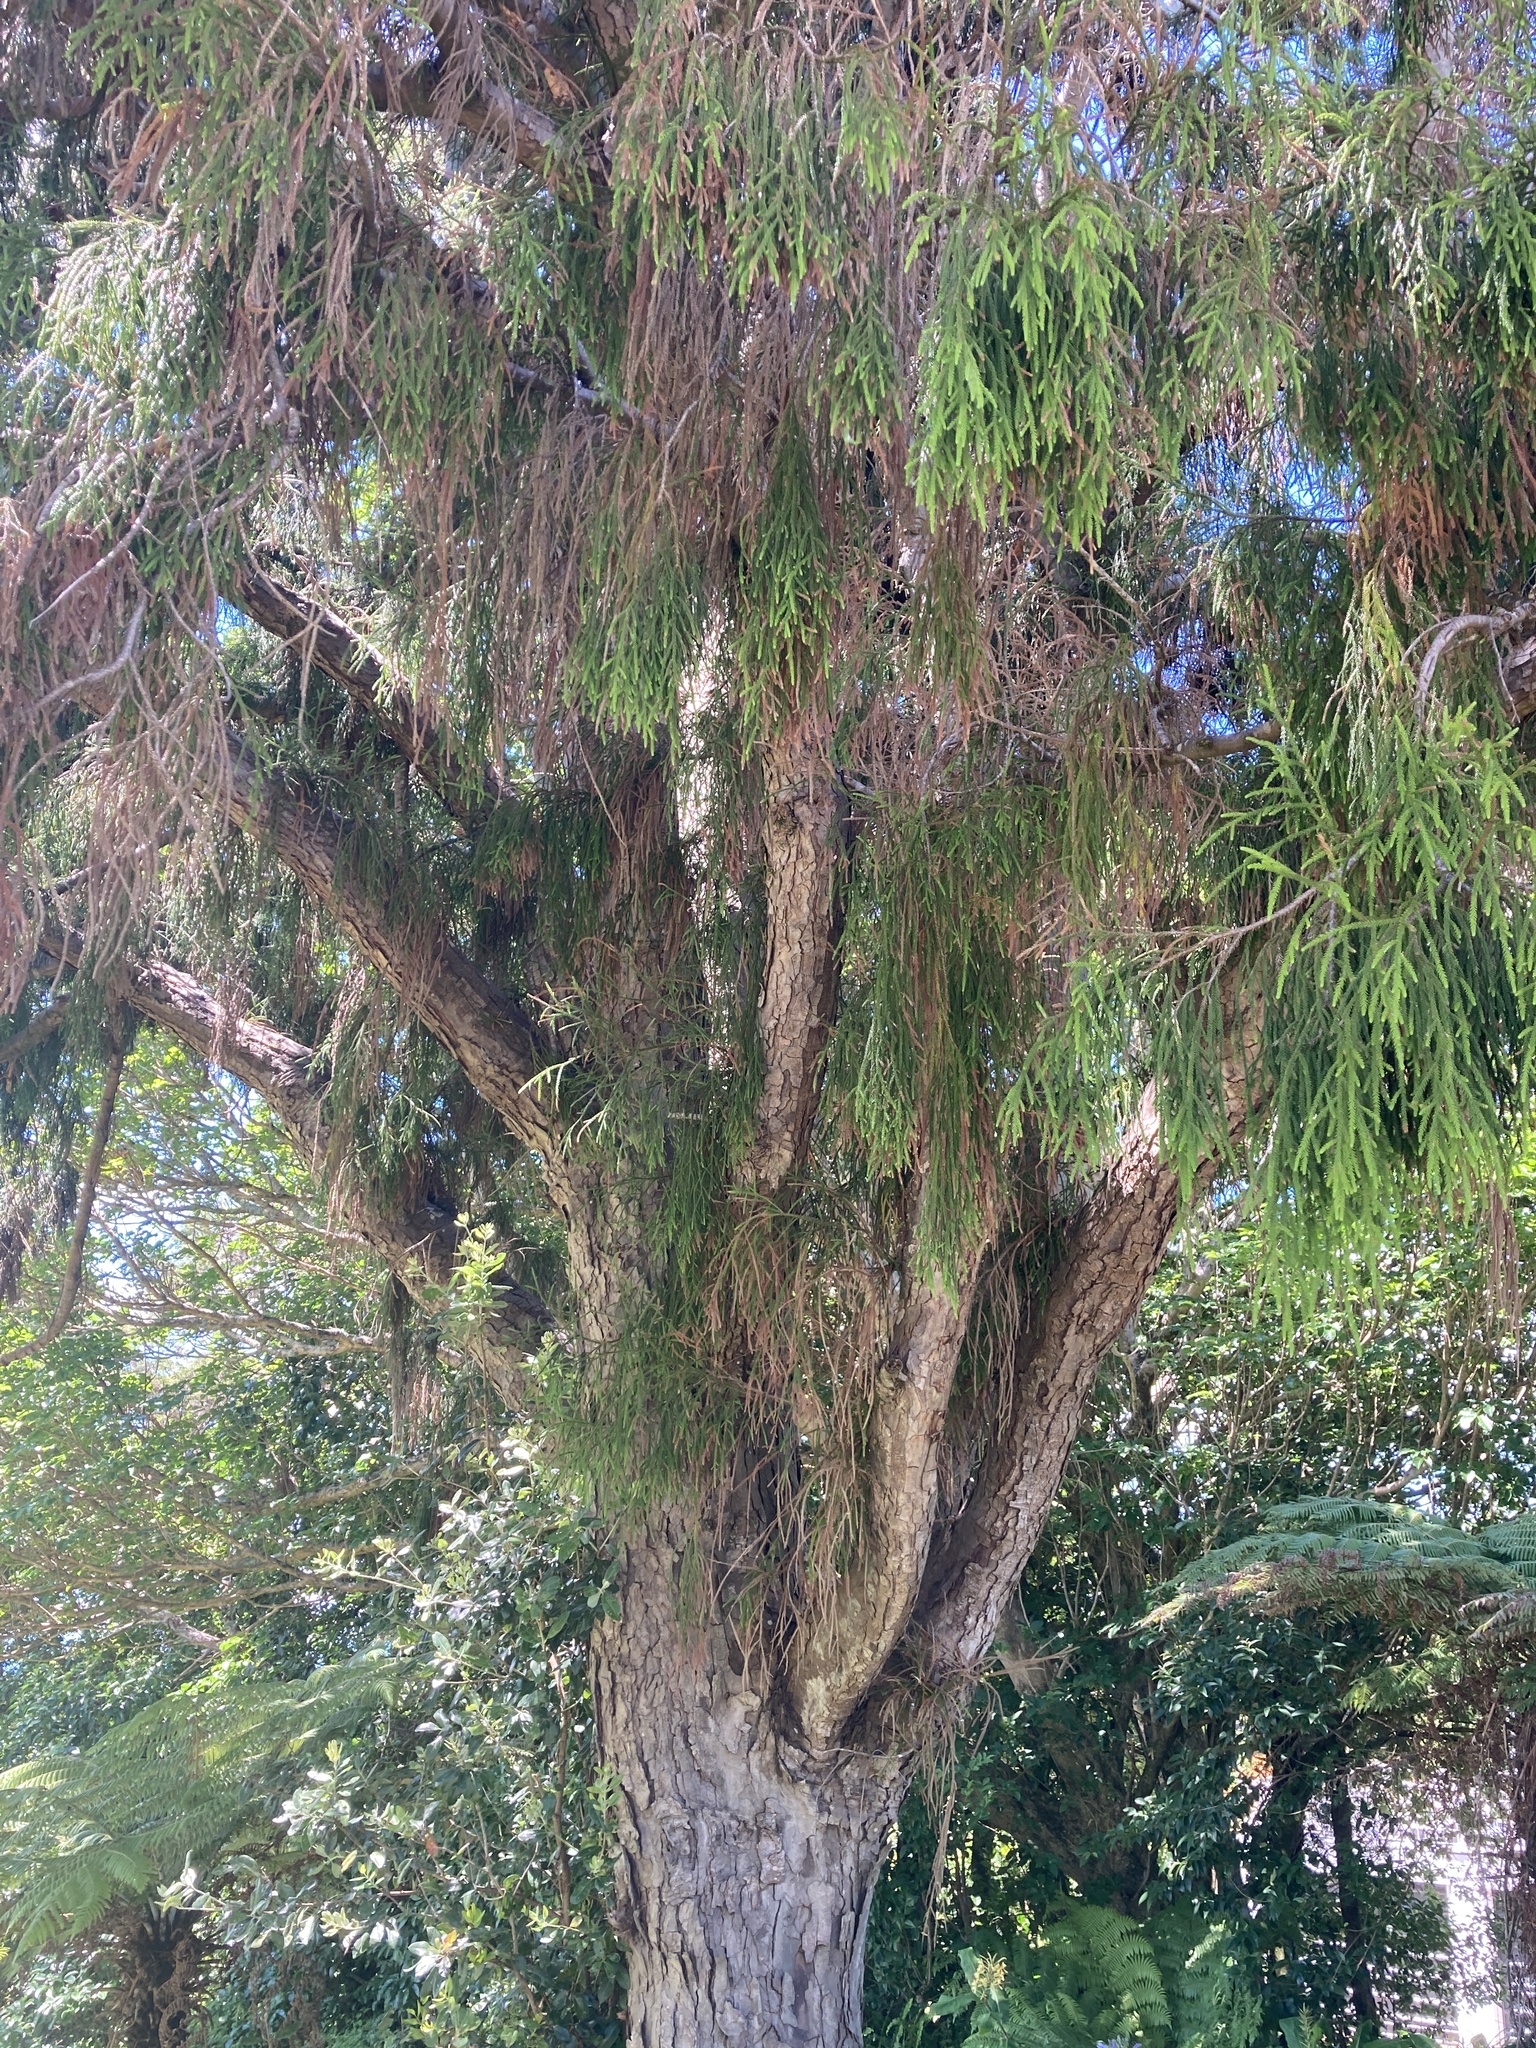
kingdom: Plantae
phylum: Tracheophyta
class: Pinopsida
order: Pinales
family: Podocarpaceae
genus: Dacrydium
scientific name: Dacrydium cupressinum
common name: Red pine
